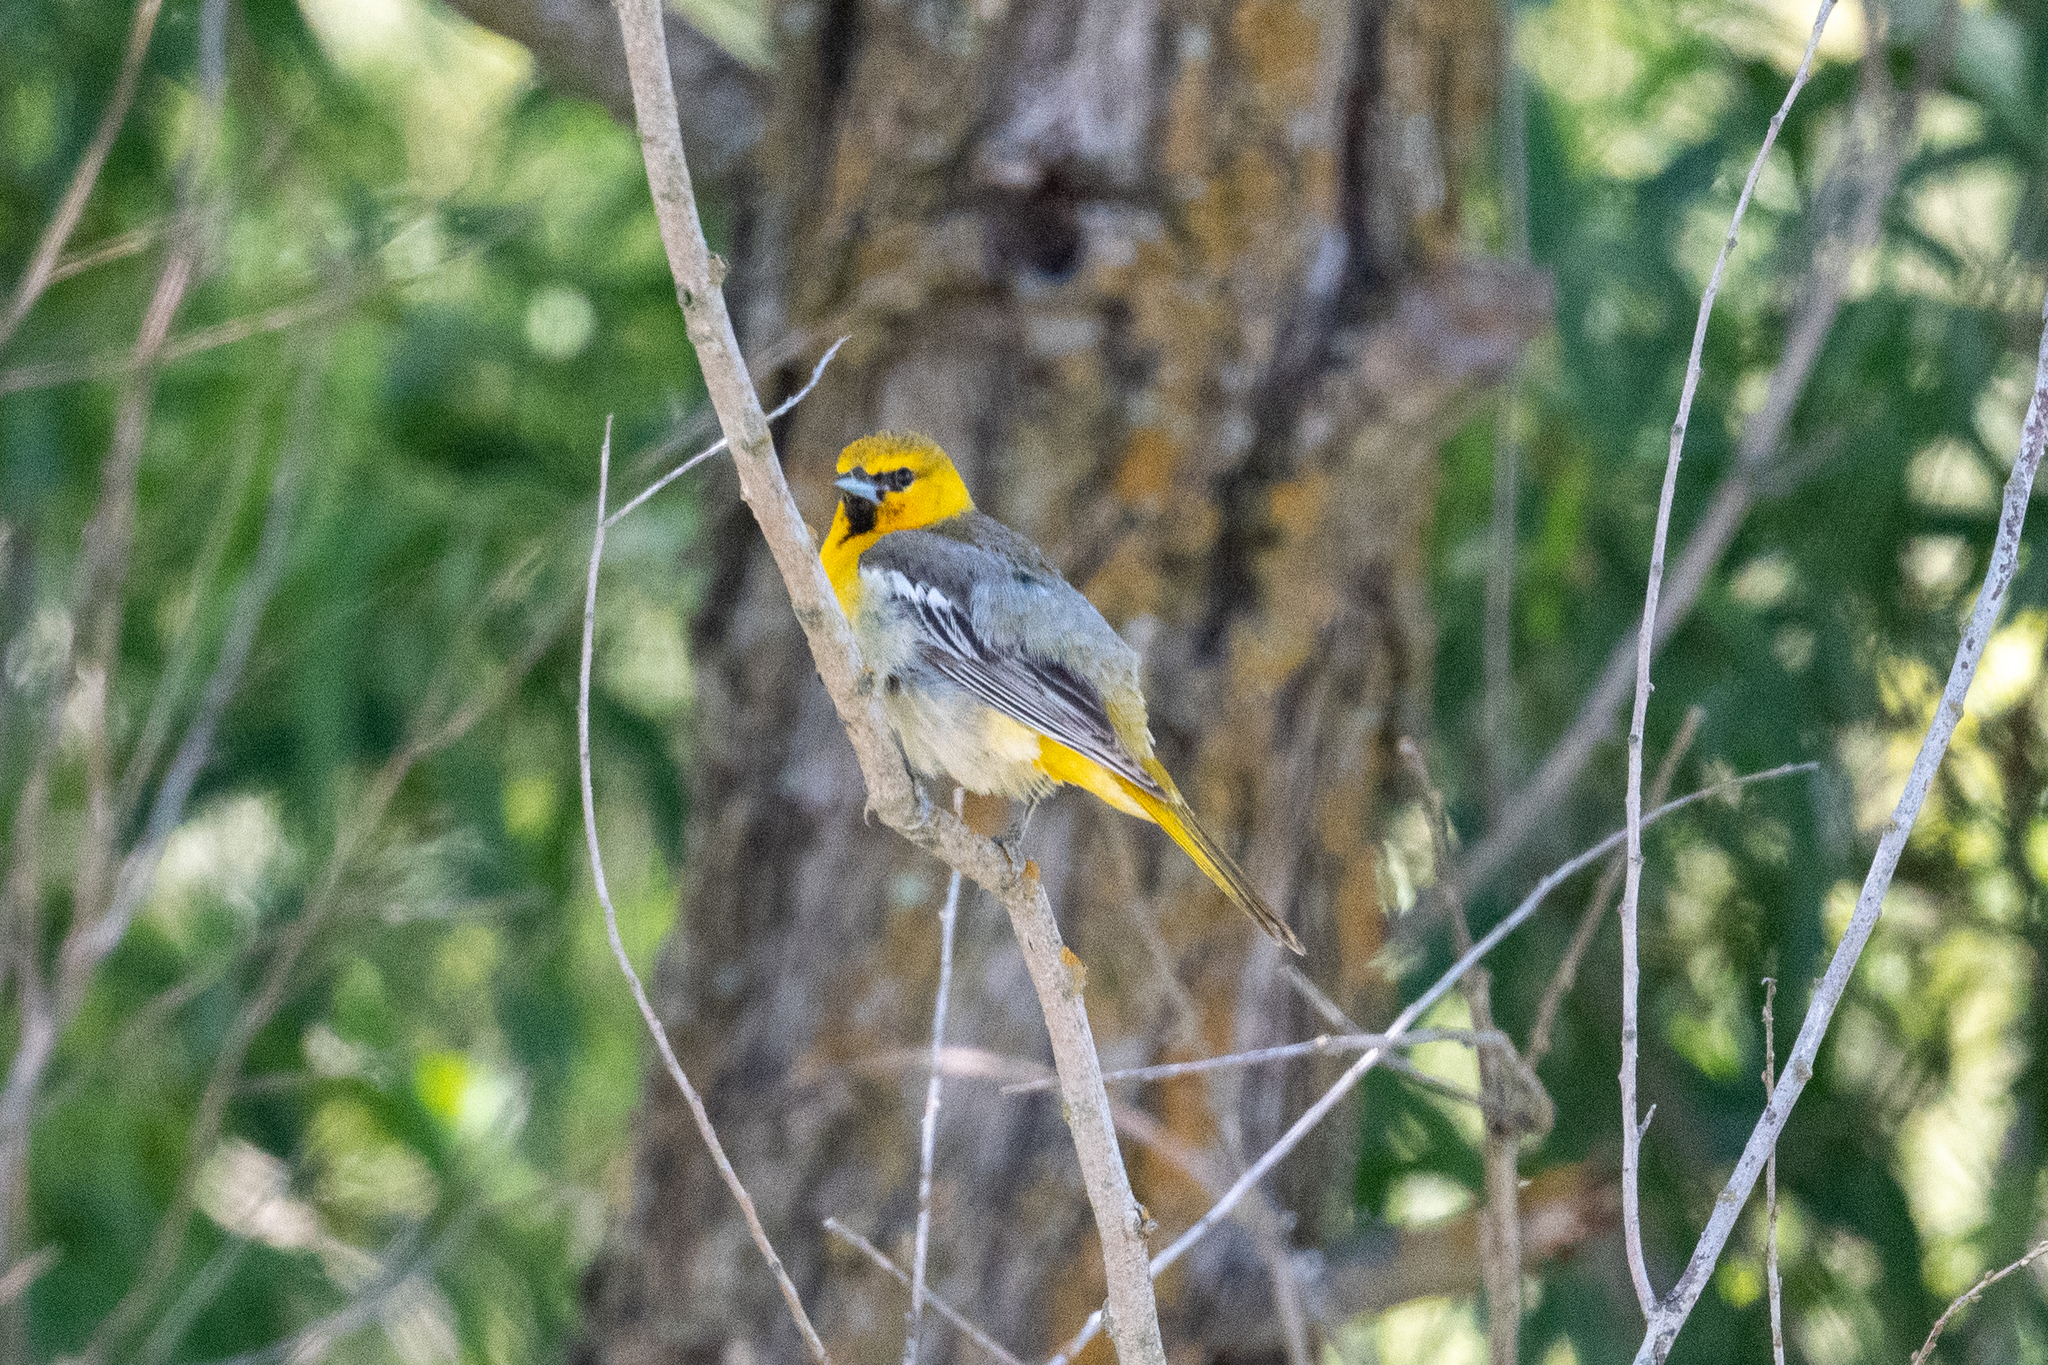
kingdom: Animalia
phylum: Chordata
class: Aves
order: Passeriformes
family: Icteridae
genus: Icterus
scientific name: Icterus bullockii
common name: Bullock's oriole
